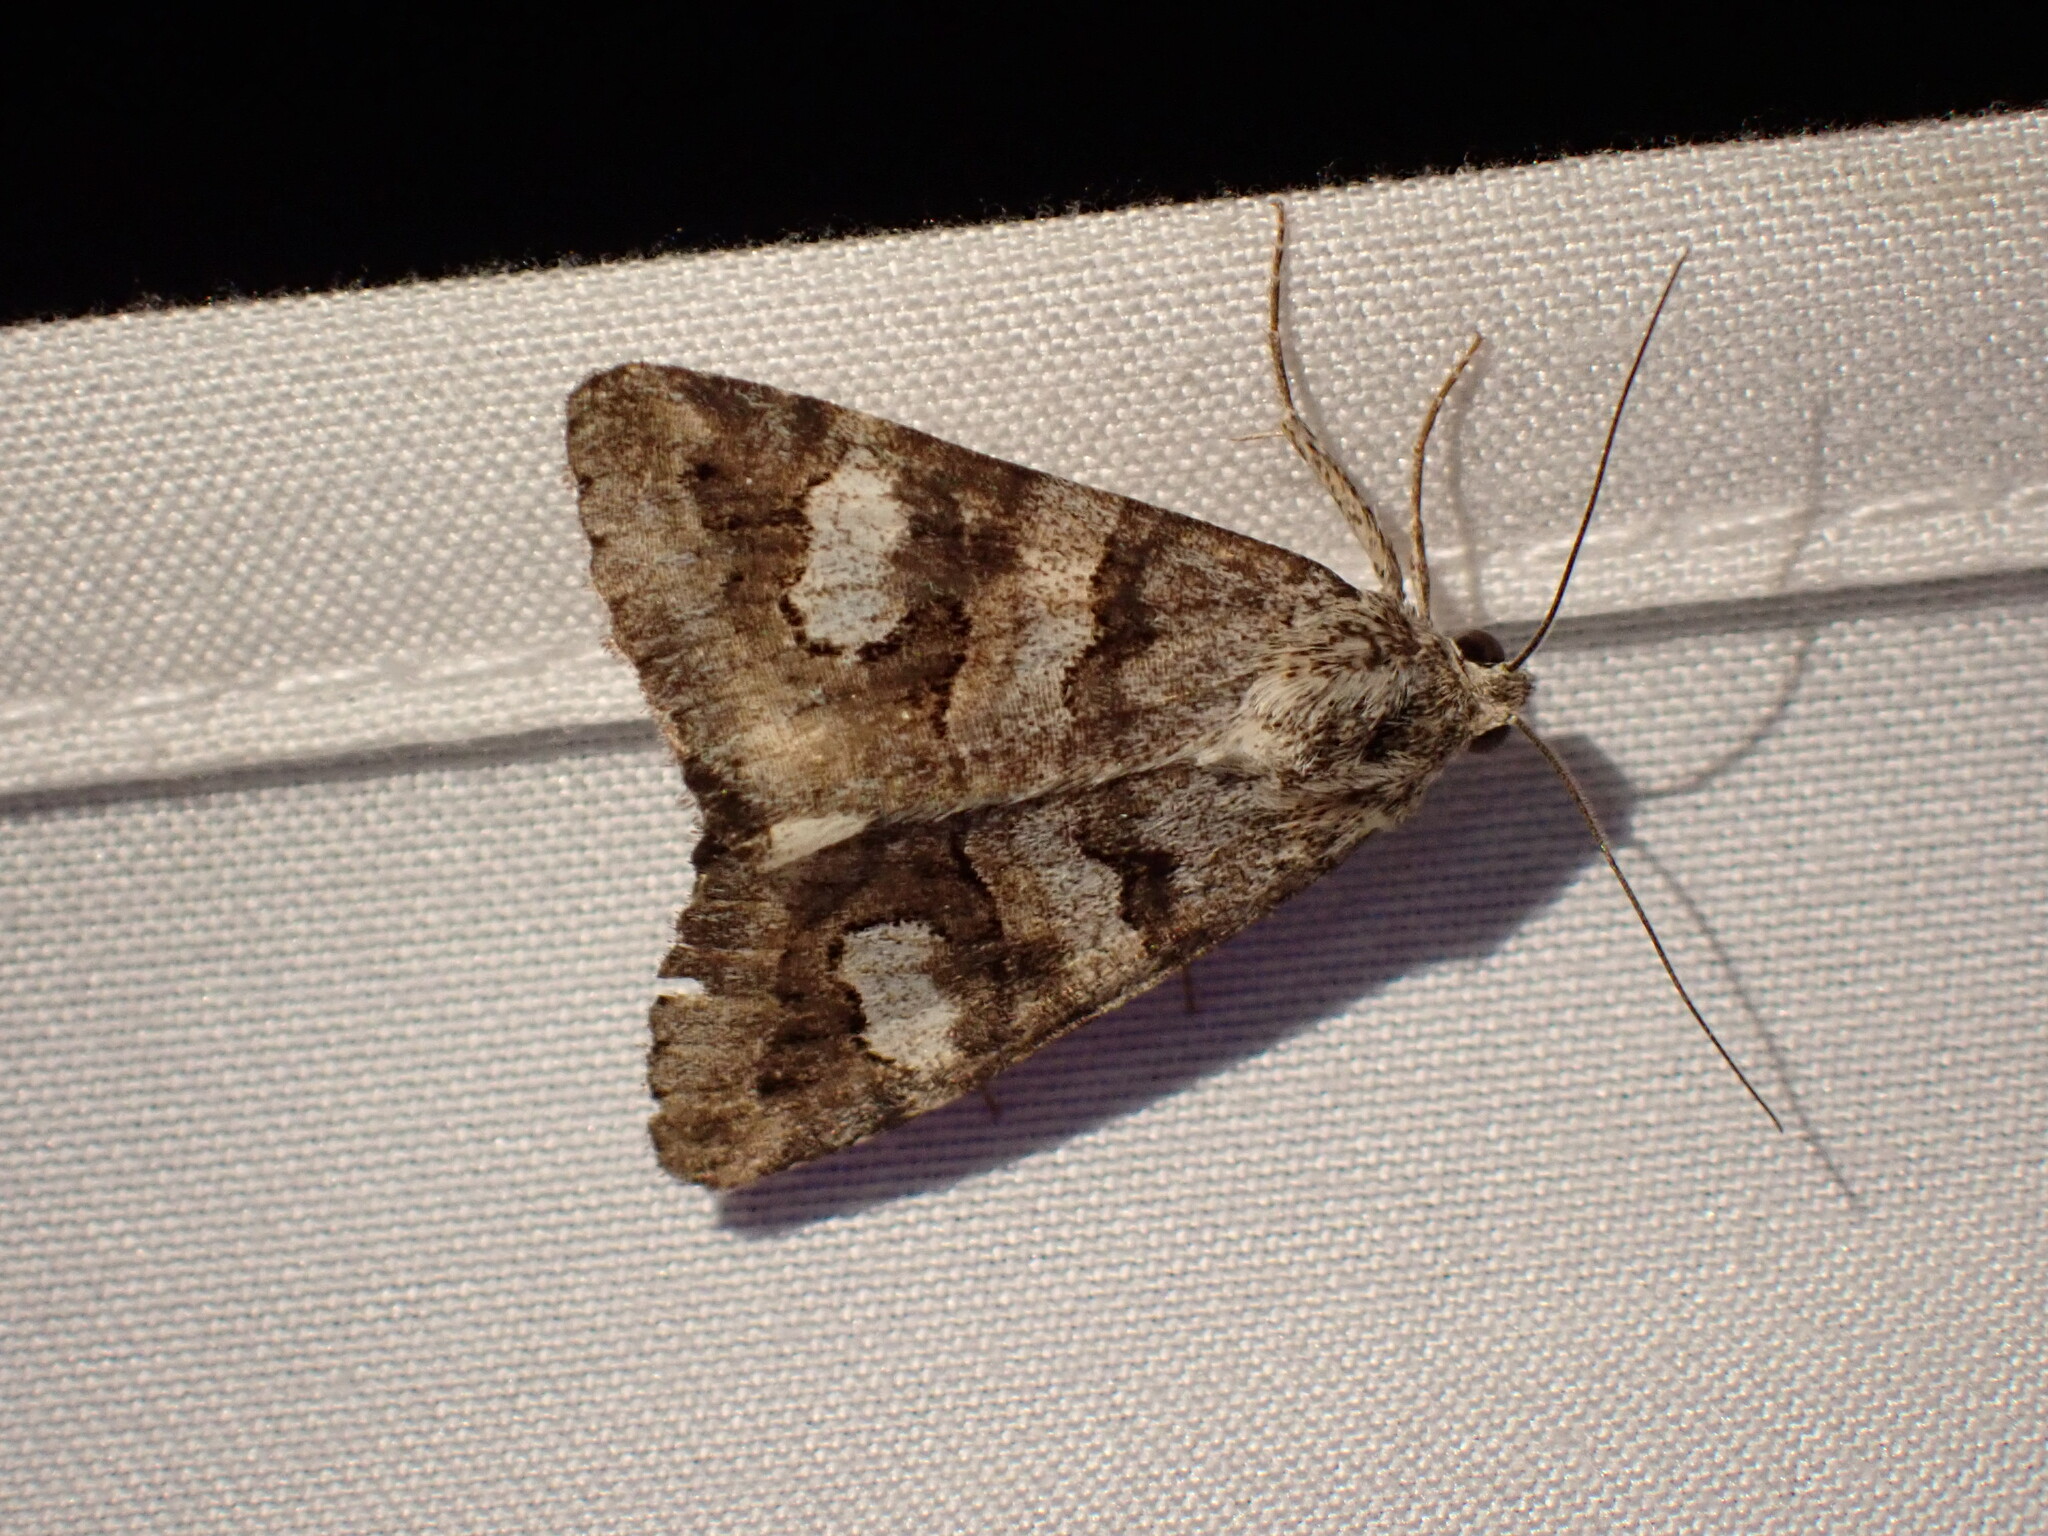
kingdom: Animalia
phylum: Arthropoda
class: Insecta
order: Lepidoptera
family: Erebidae
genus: Drasteria
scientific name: Drasteria hudsonica
